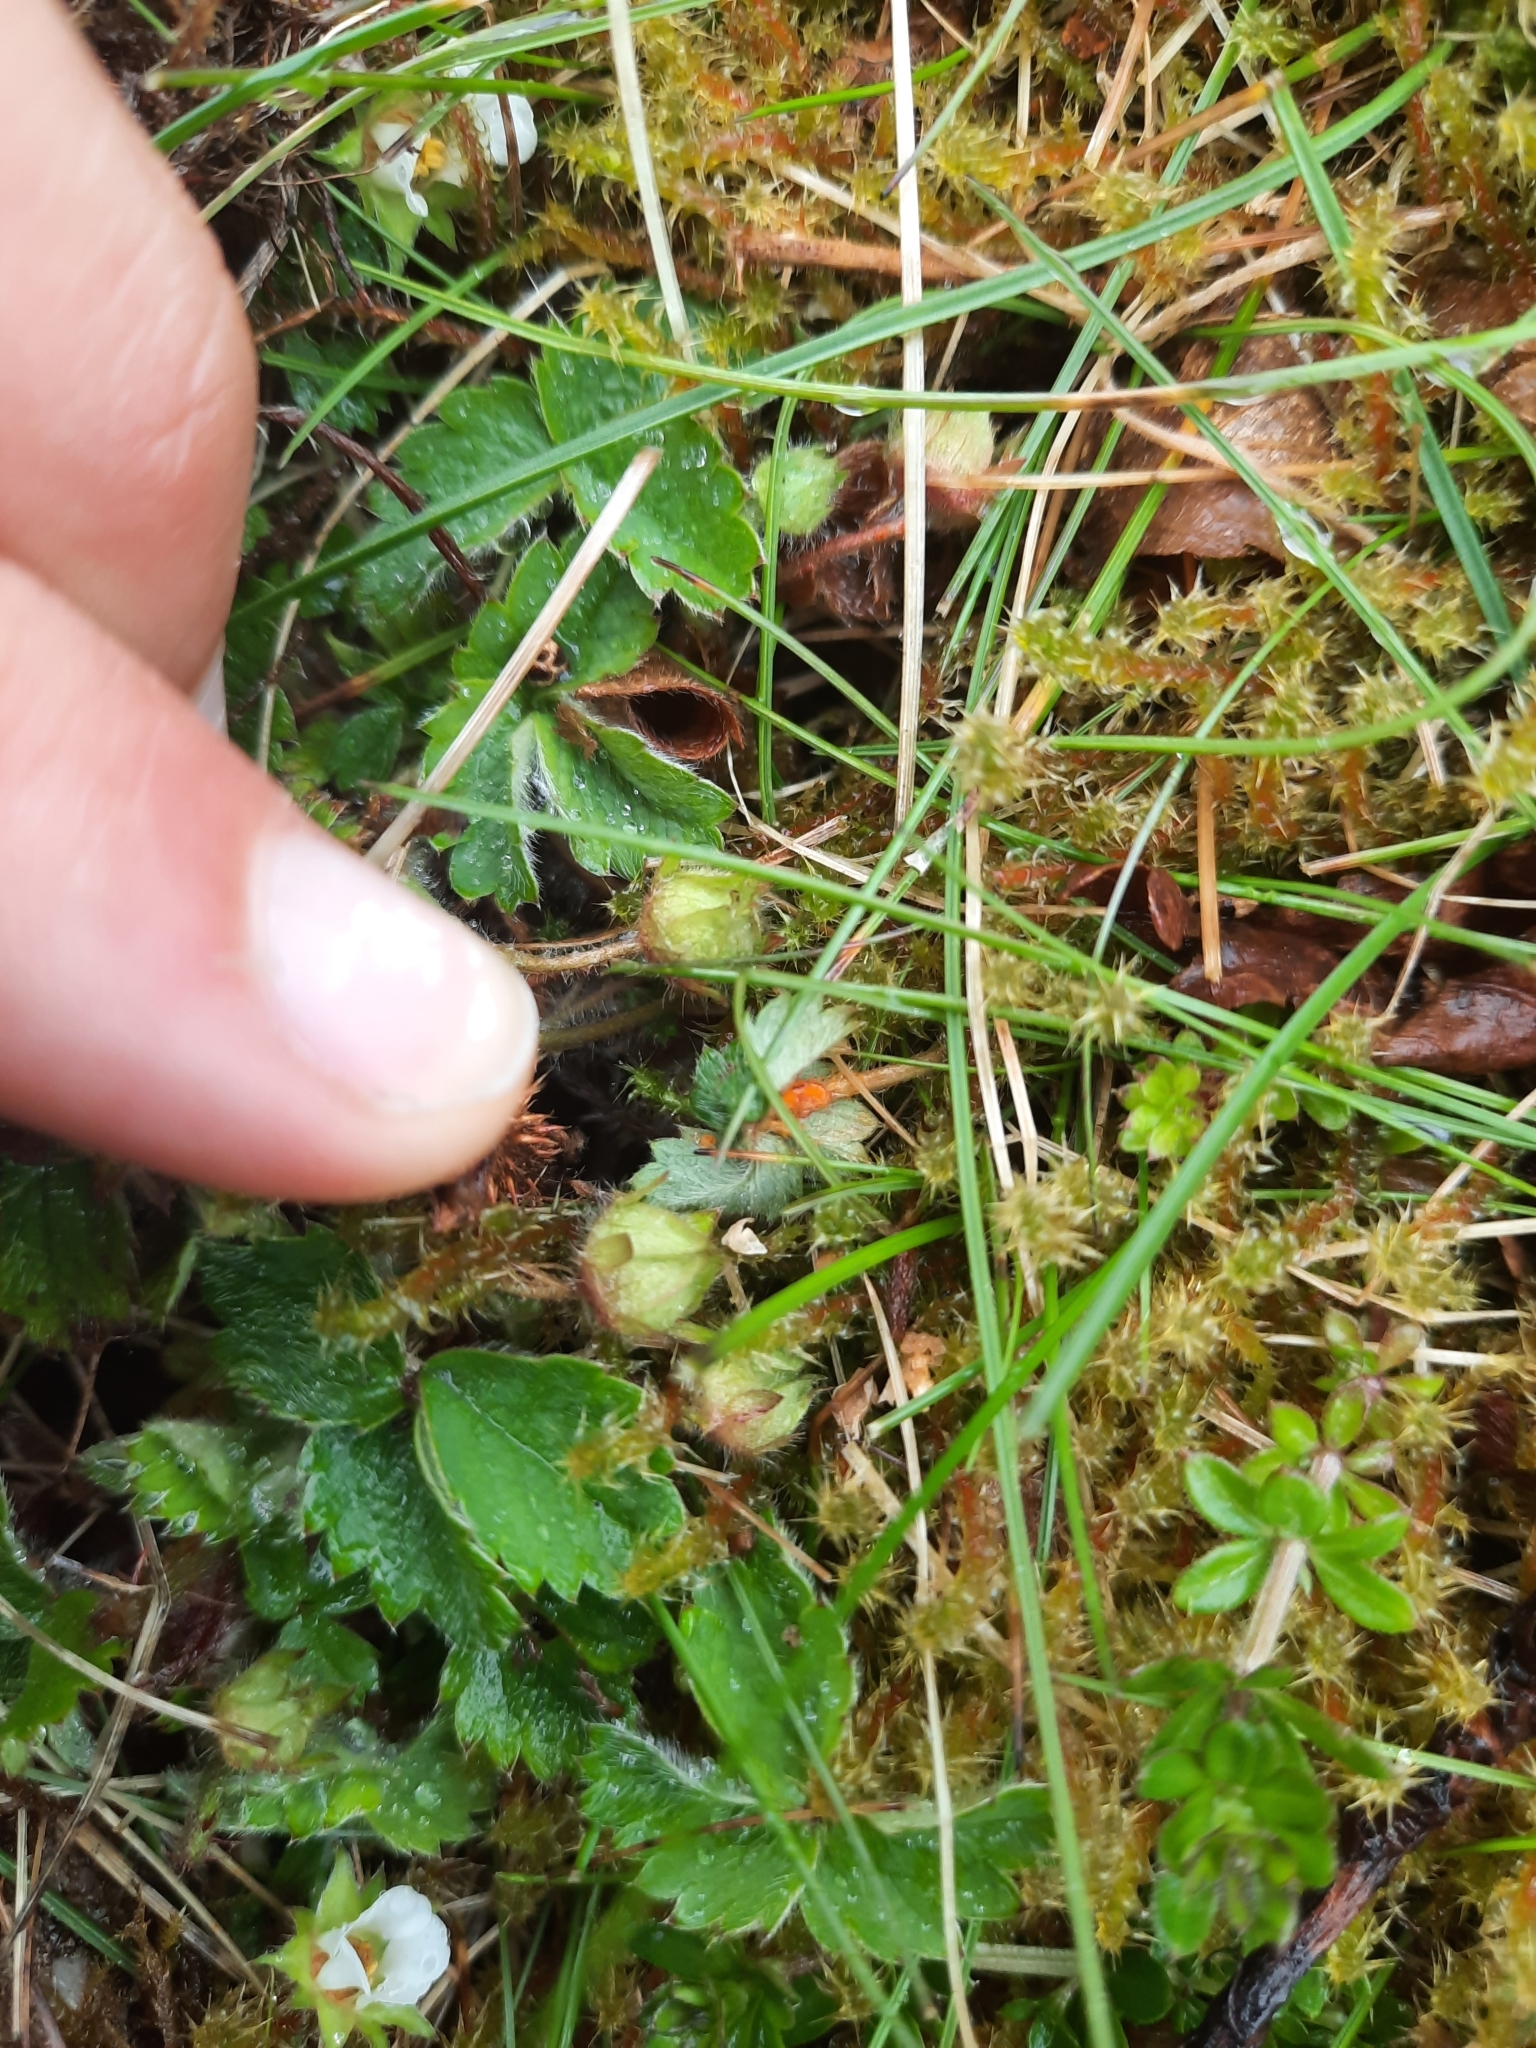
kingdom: Fungi
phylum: Basidiomycota
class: Pucciniomycetes
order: Pucciniales
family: Phragmidiaceae
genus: Phragmidium
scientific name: Phragmidium fragariae
